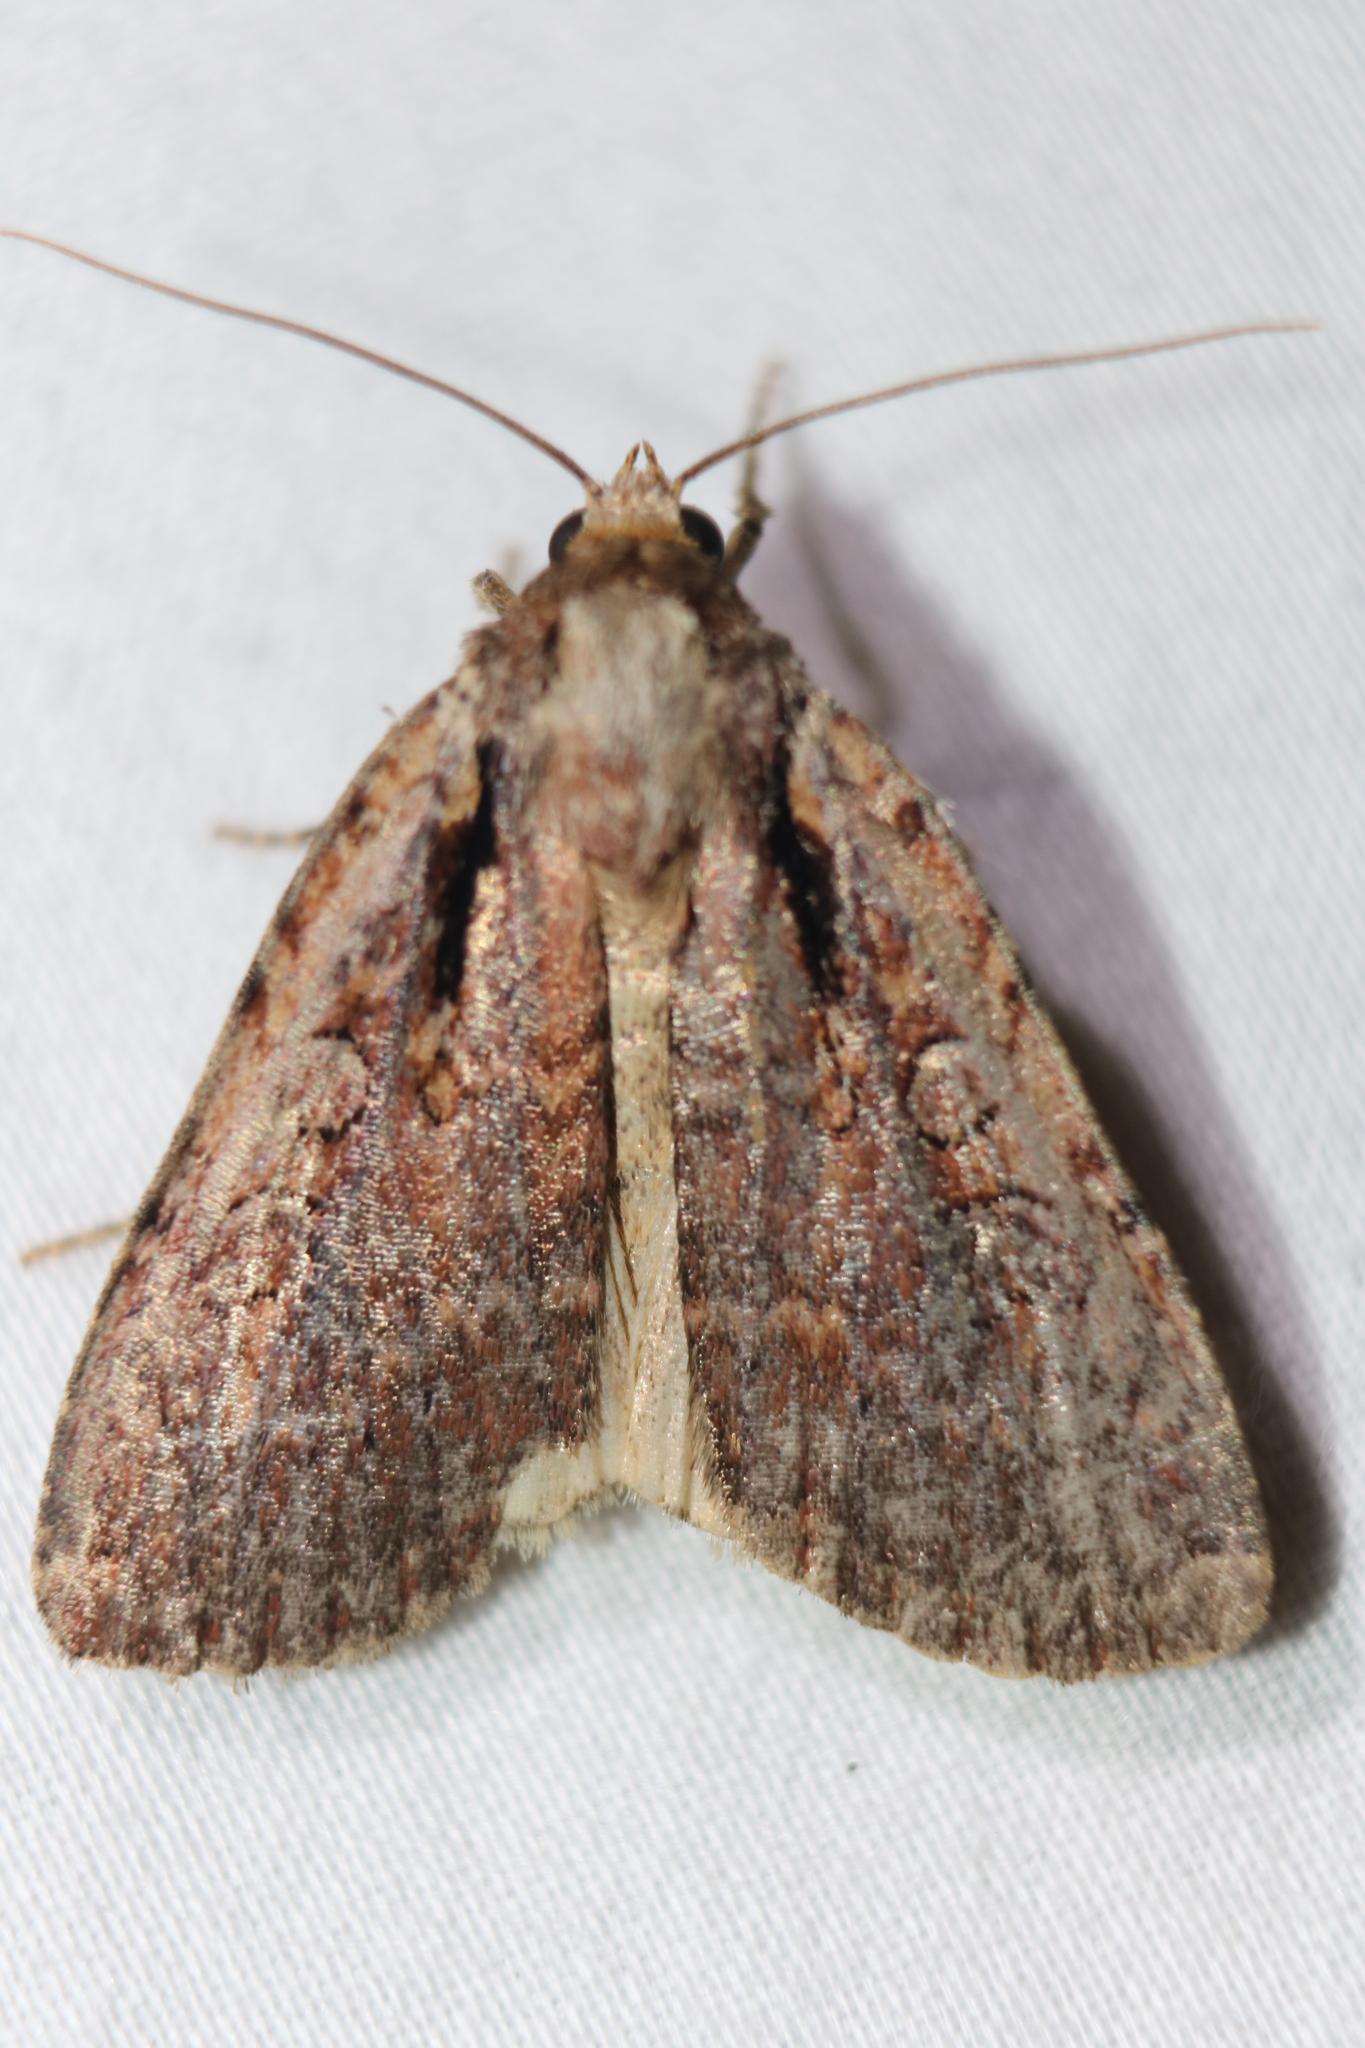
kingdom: Animalia
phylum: Arthropoda
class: Insecta
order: Lepidoptera
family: Noctuidae
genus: Eueretagrotis
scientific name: Eueretagrotis attentus
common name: Attentive dart
